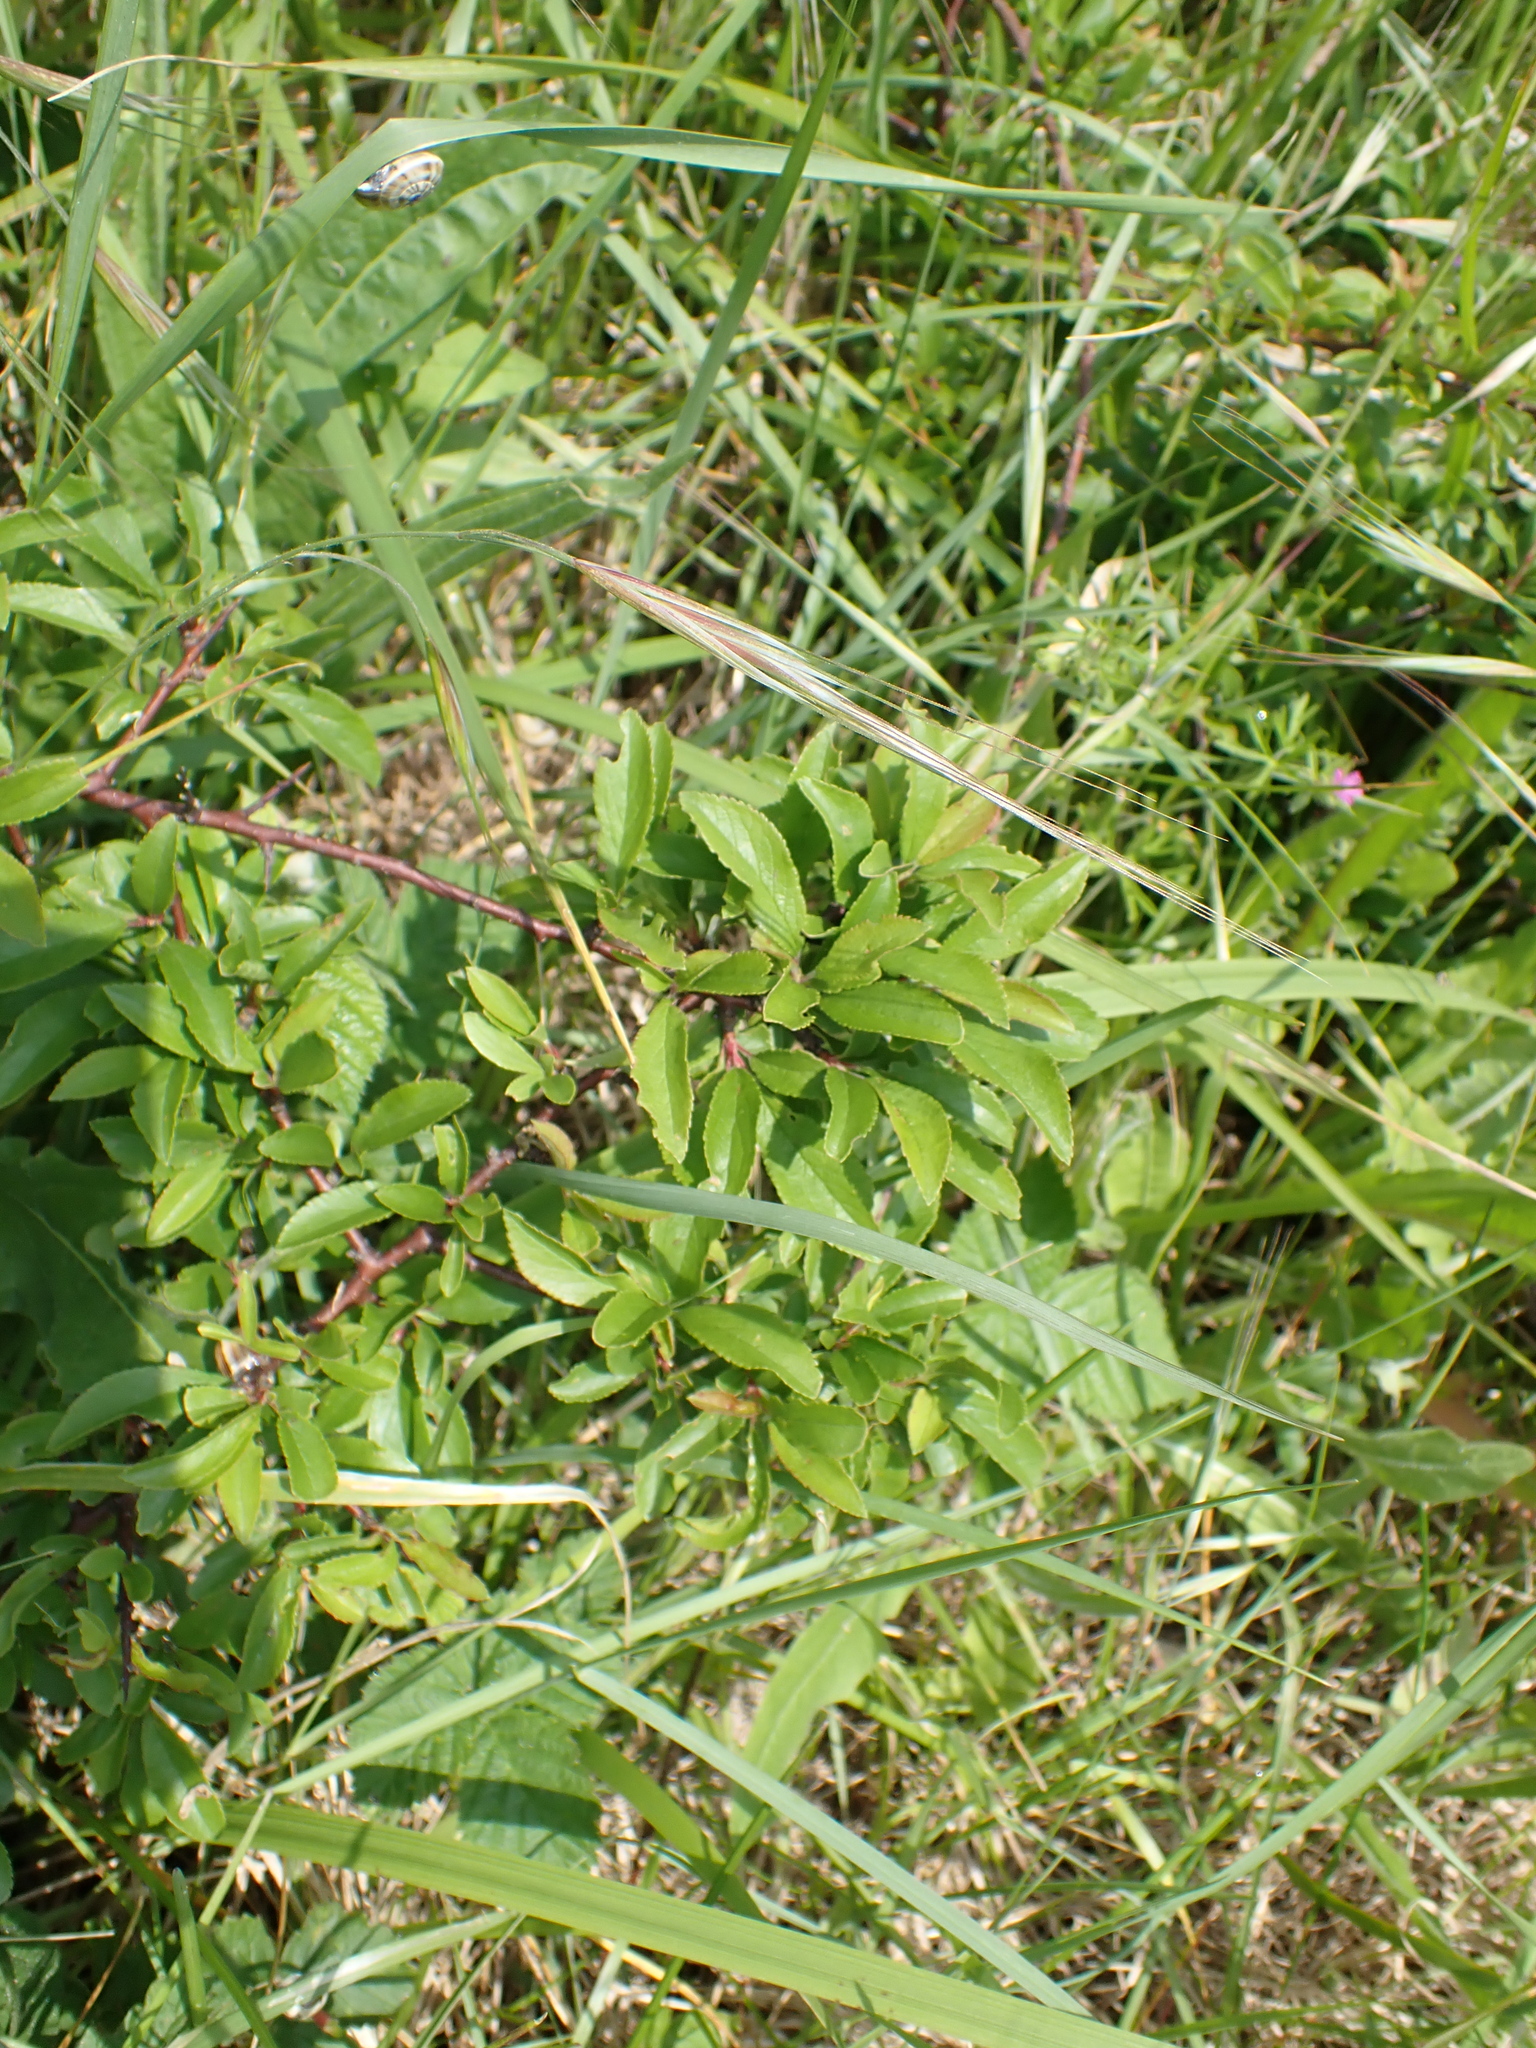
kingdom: Plantae
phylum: Tracheophyta
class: Magnoliopsida
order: Rosales
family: Rosaceae
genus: Prunus
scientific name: Prunus spinosa
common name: Blackthorn
